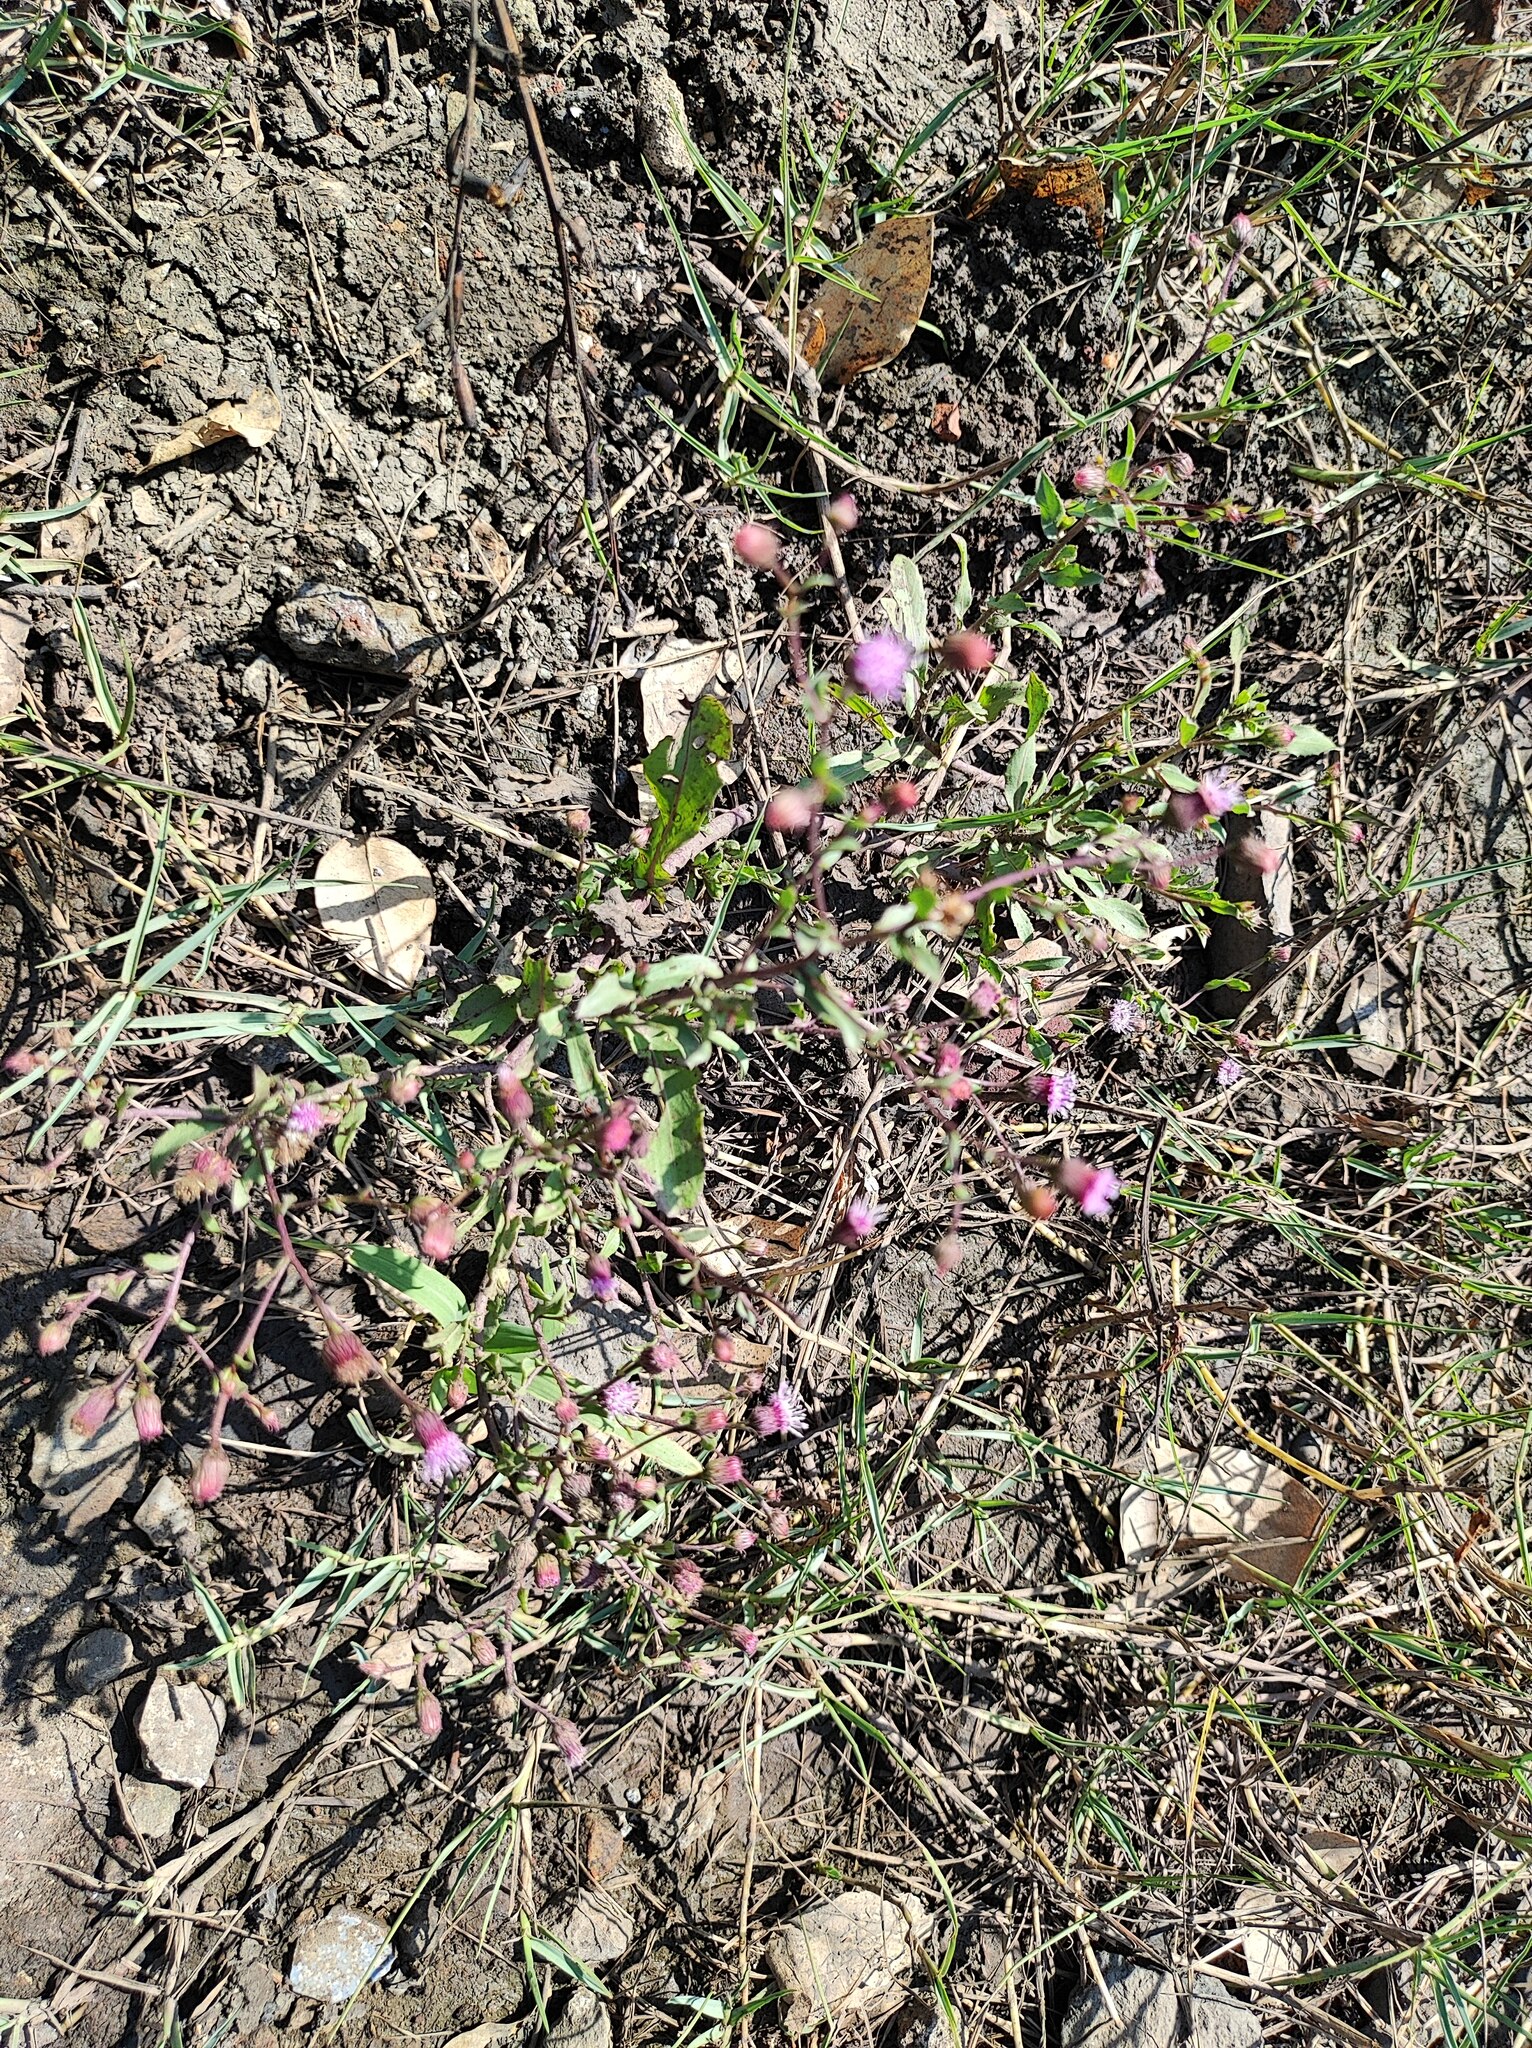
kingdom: Plantae
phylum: Tracheophyta
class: Magnoliopsida
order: Asterales
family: Asteraceae
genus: Blumea
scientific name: Blumea obliqua
